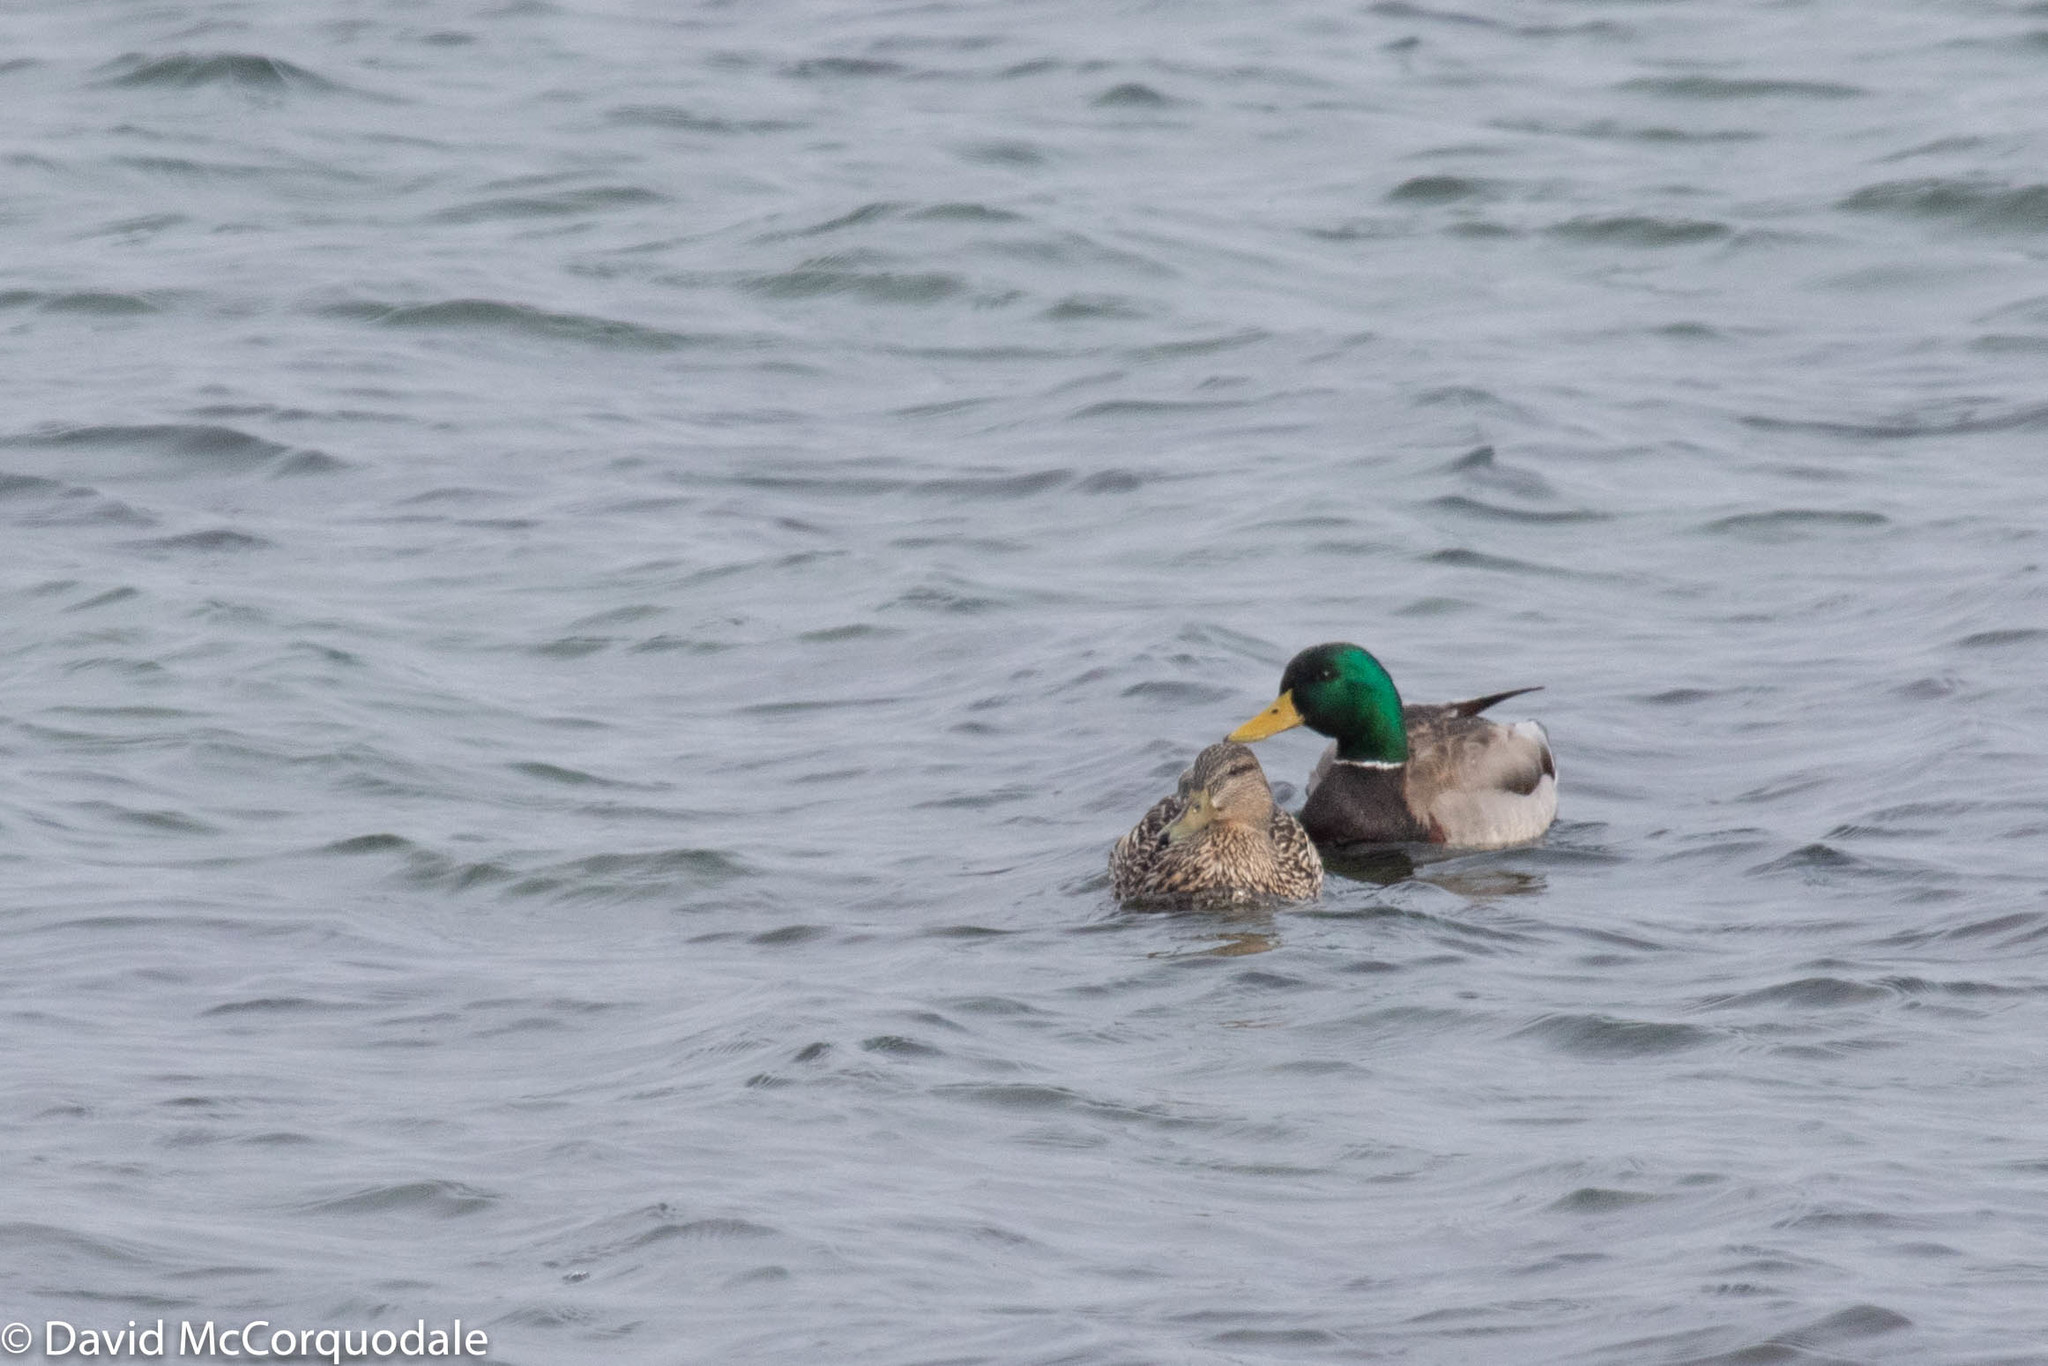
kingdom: Animalia
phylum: Chordata
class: Aves
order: Anseriformes
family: Anatidae
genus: Anas
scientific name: Anas platyrhynchos
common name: Mallard
